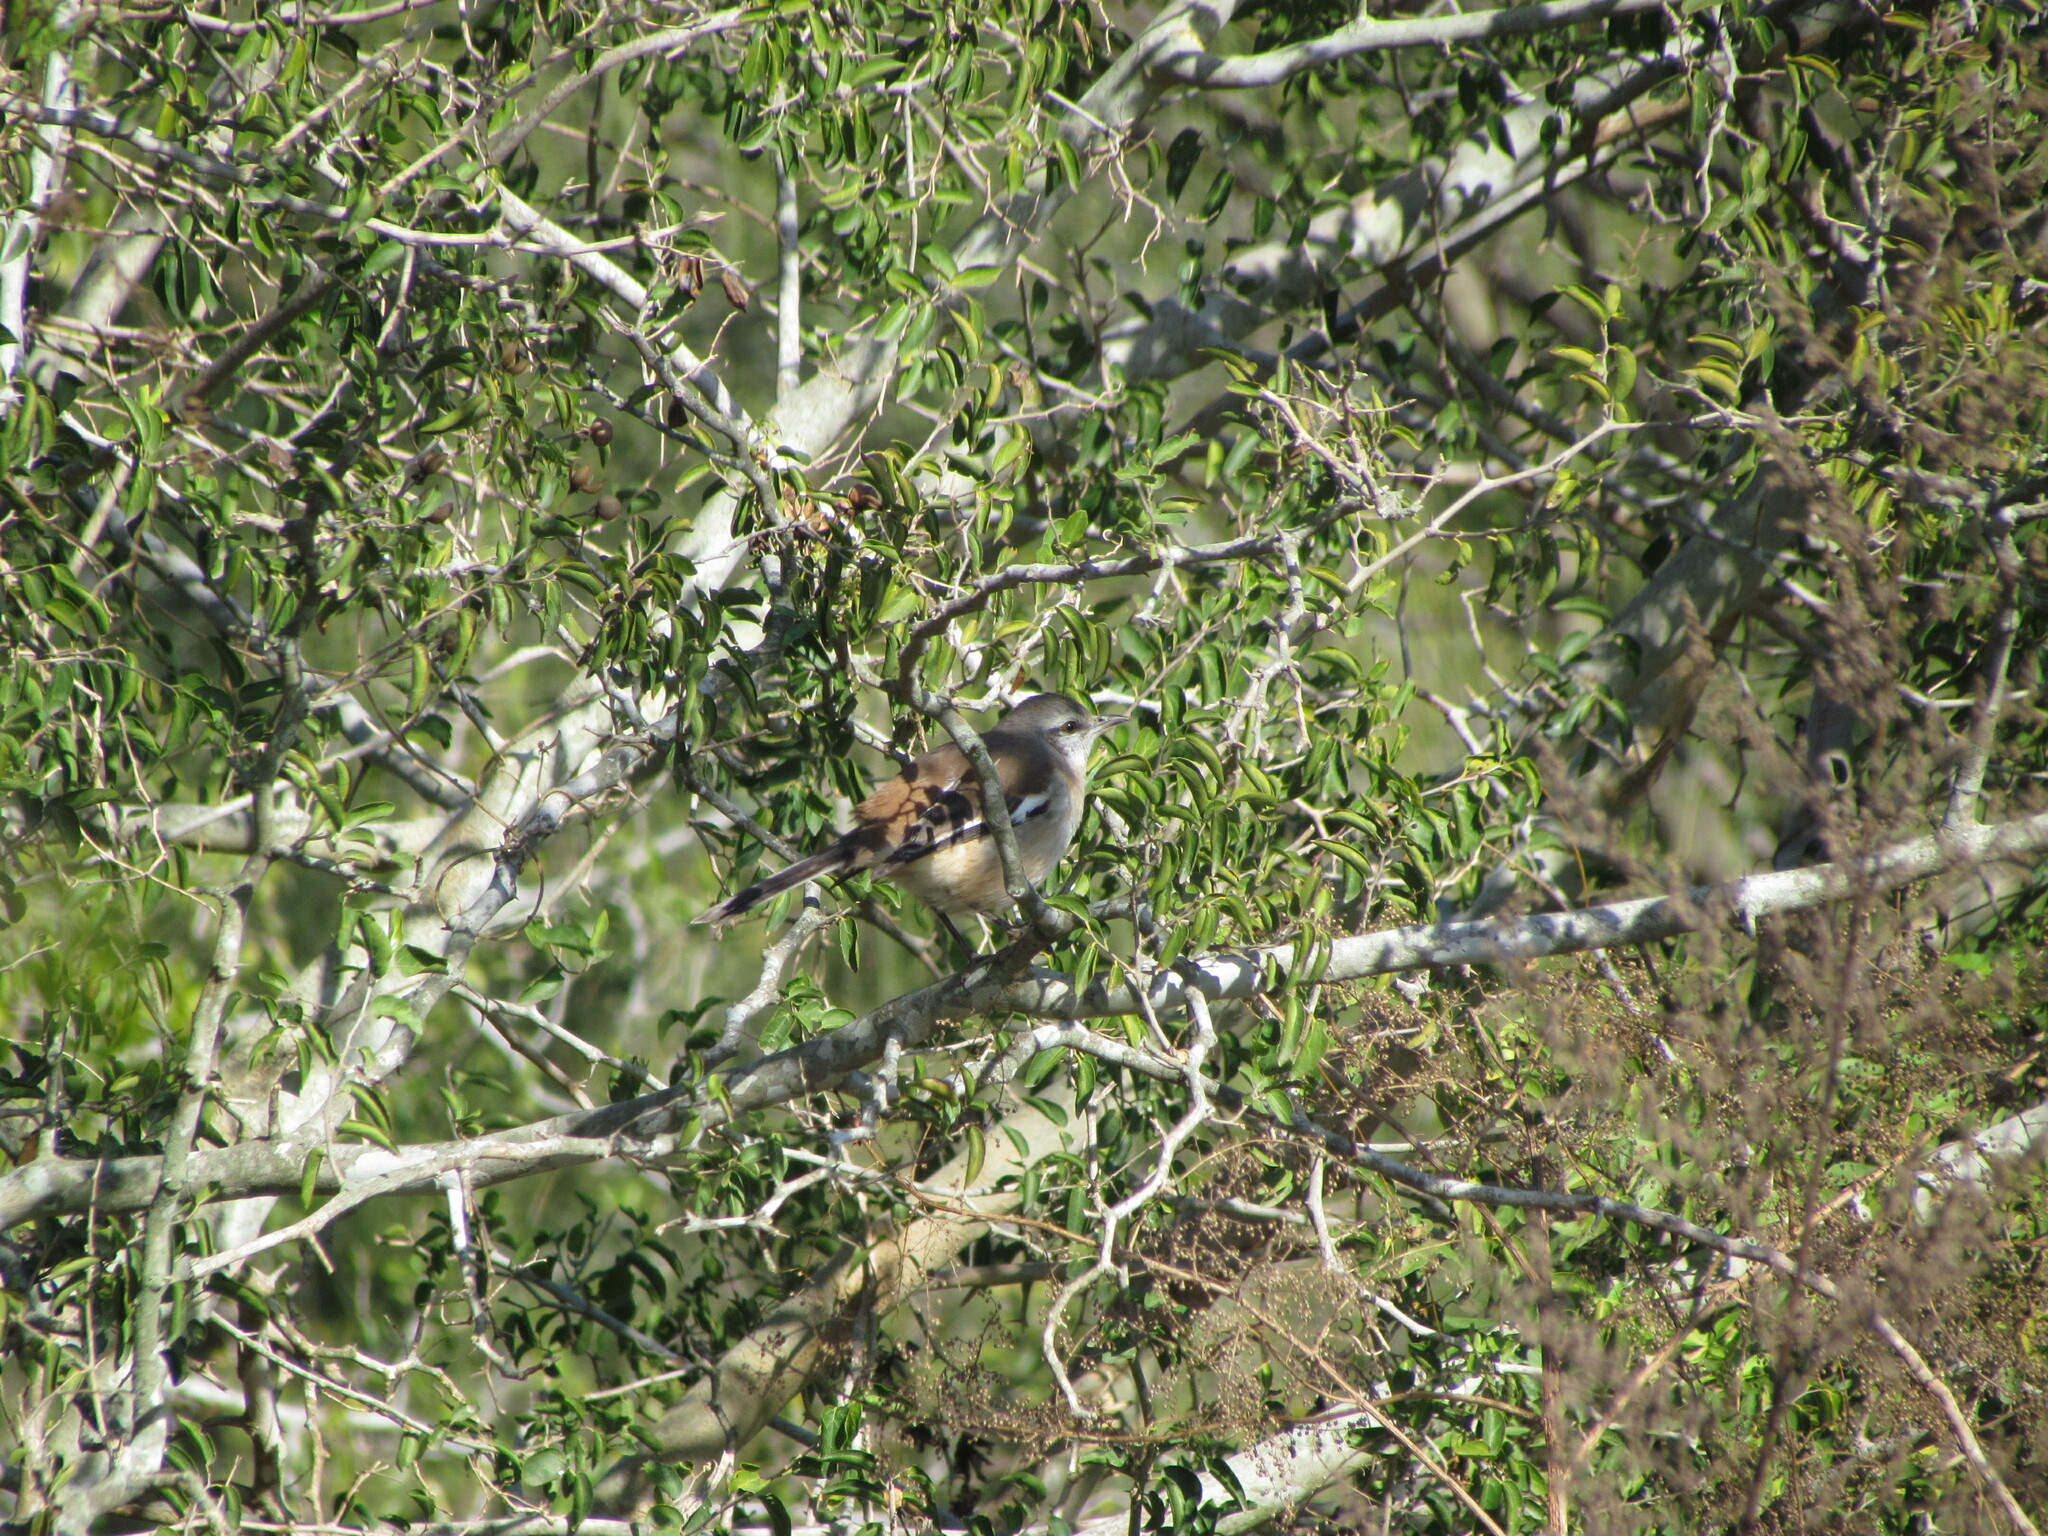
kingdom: Animalia
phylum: Chordata
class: Aves
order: Passeriformes
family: Mimidae
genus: Mimus
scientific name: Mimus triurus
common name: White-banded mockingbird
